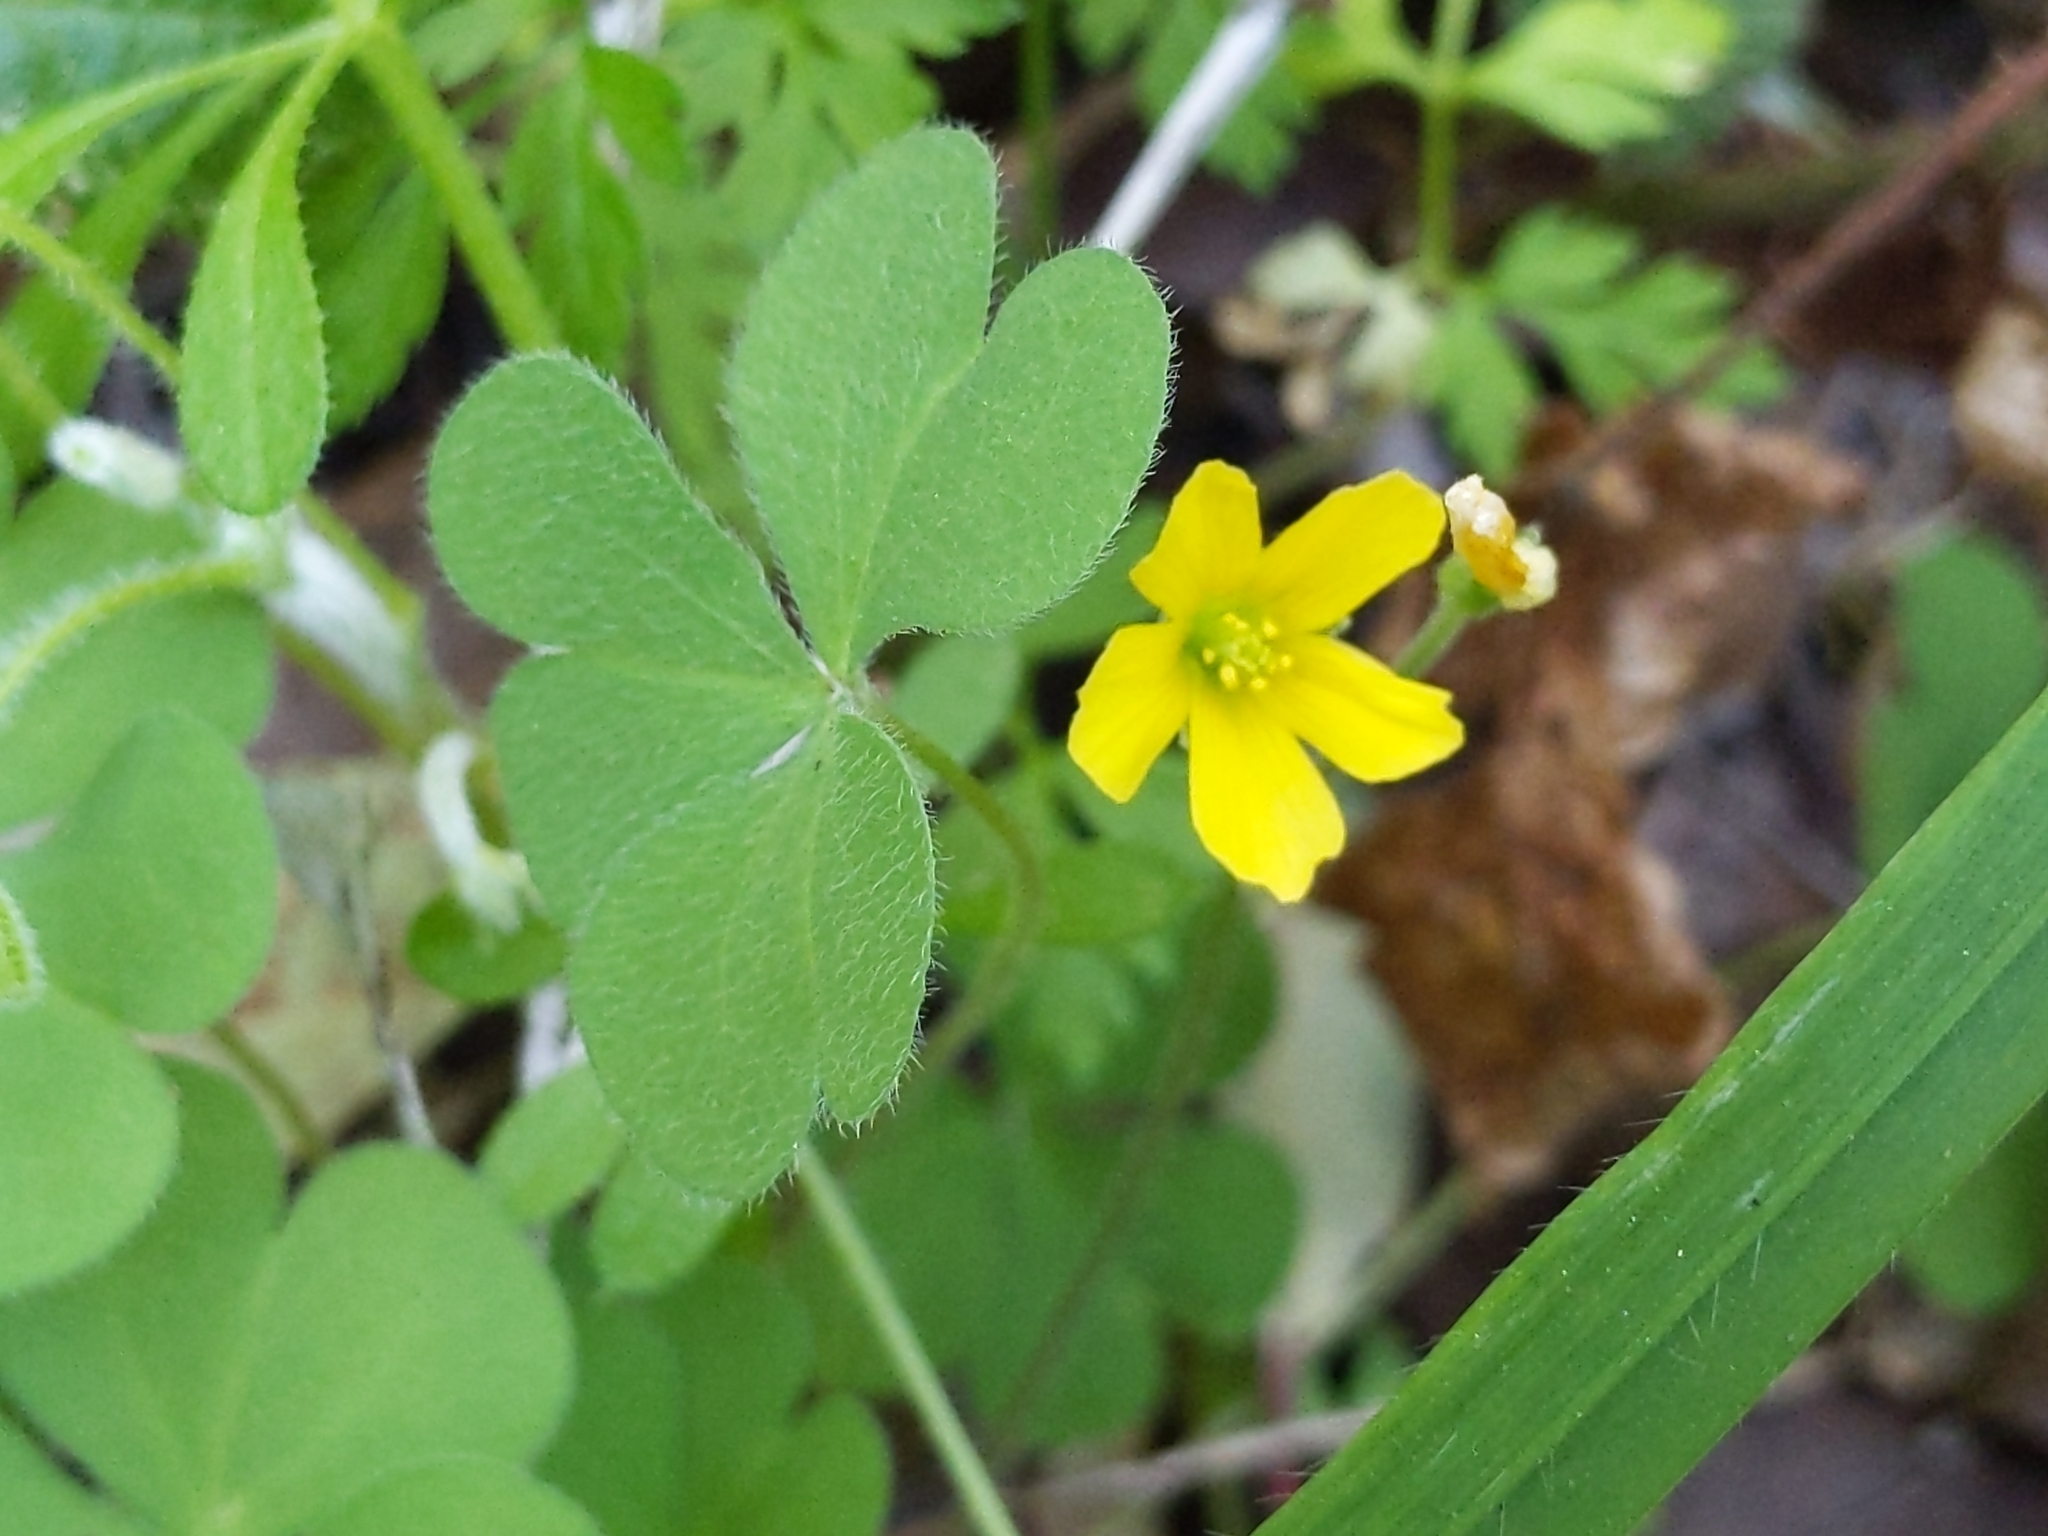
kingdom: Plantae
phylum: Tracheophyta
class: Magnoliopsida
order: Oxalidales
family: Oxalidaceae
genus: Oxalis
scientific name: Oxalis pilosa
